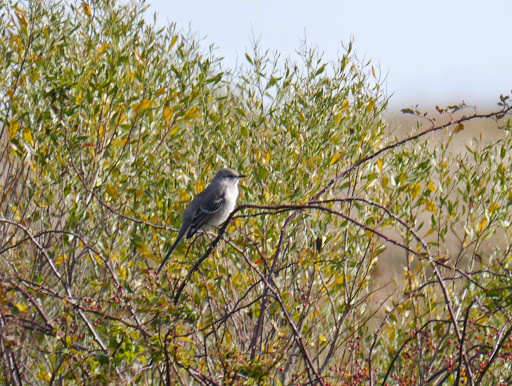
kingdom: Animalia
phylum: Chordata
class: Aves
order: Passeriformes
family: Mimidae
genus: Mimus
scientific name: Mimus polyglottos
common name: Northern mockingbird
